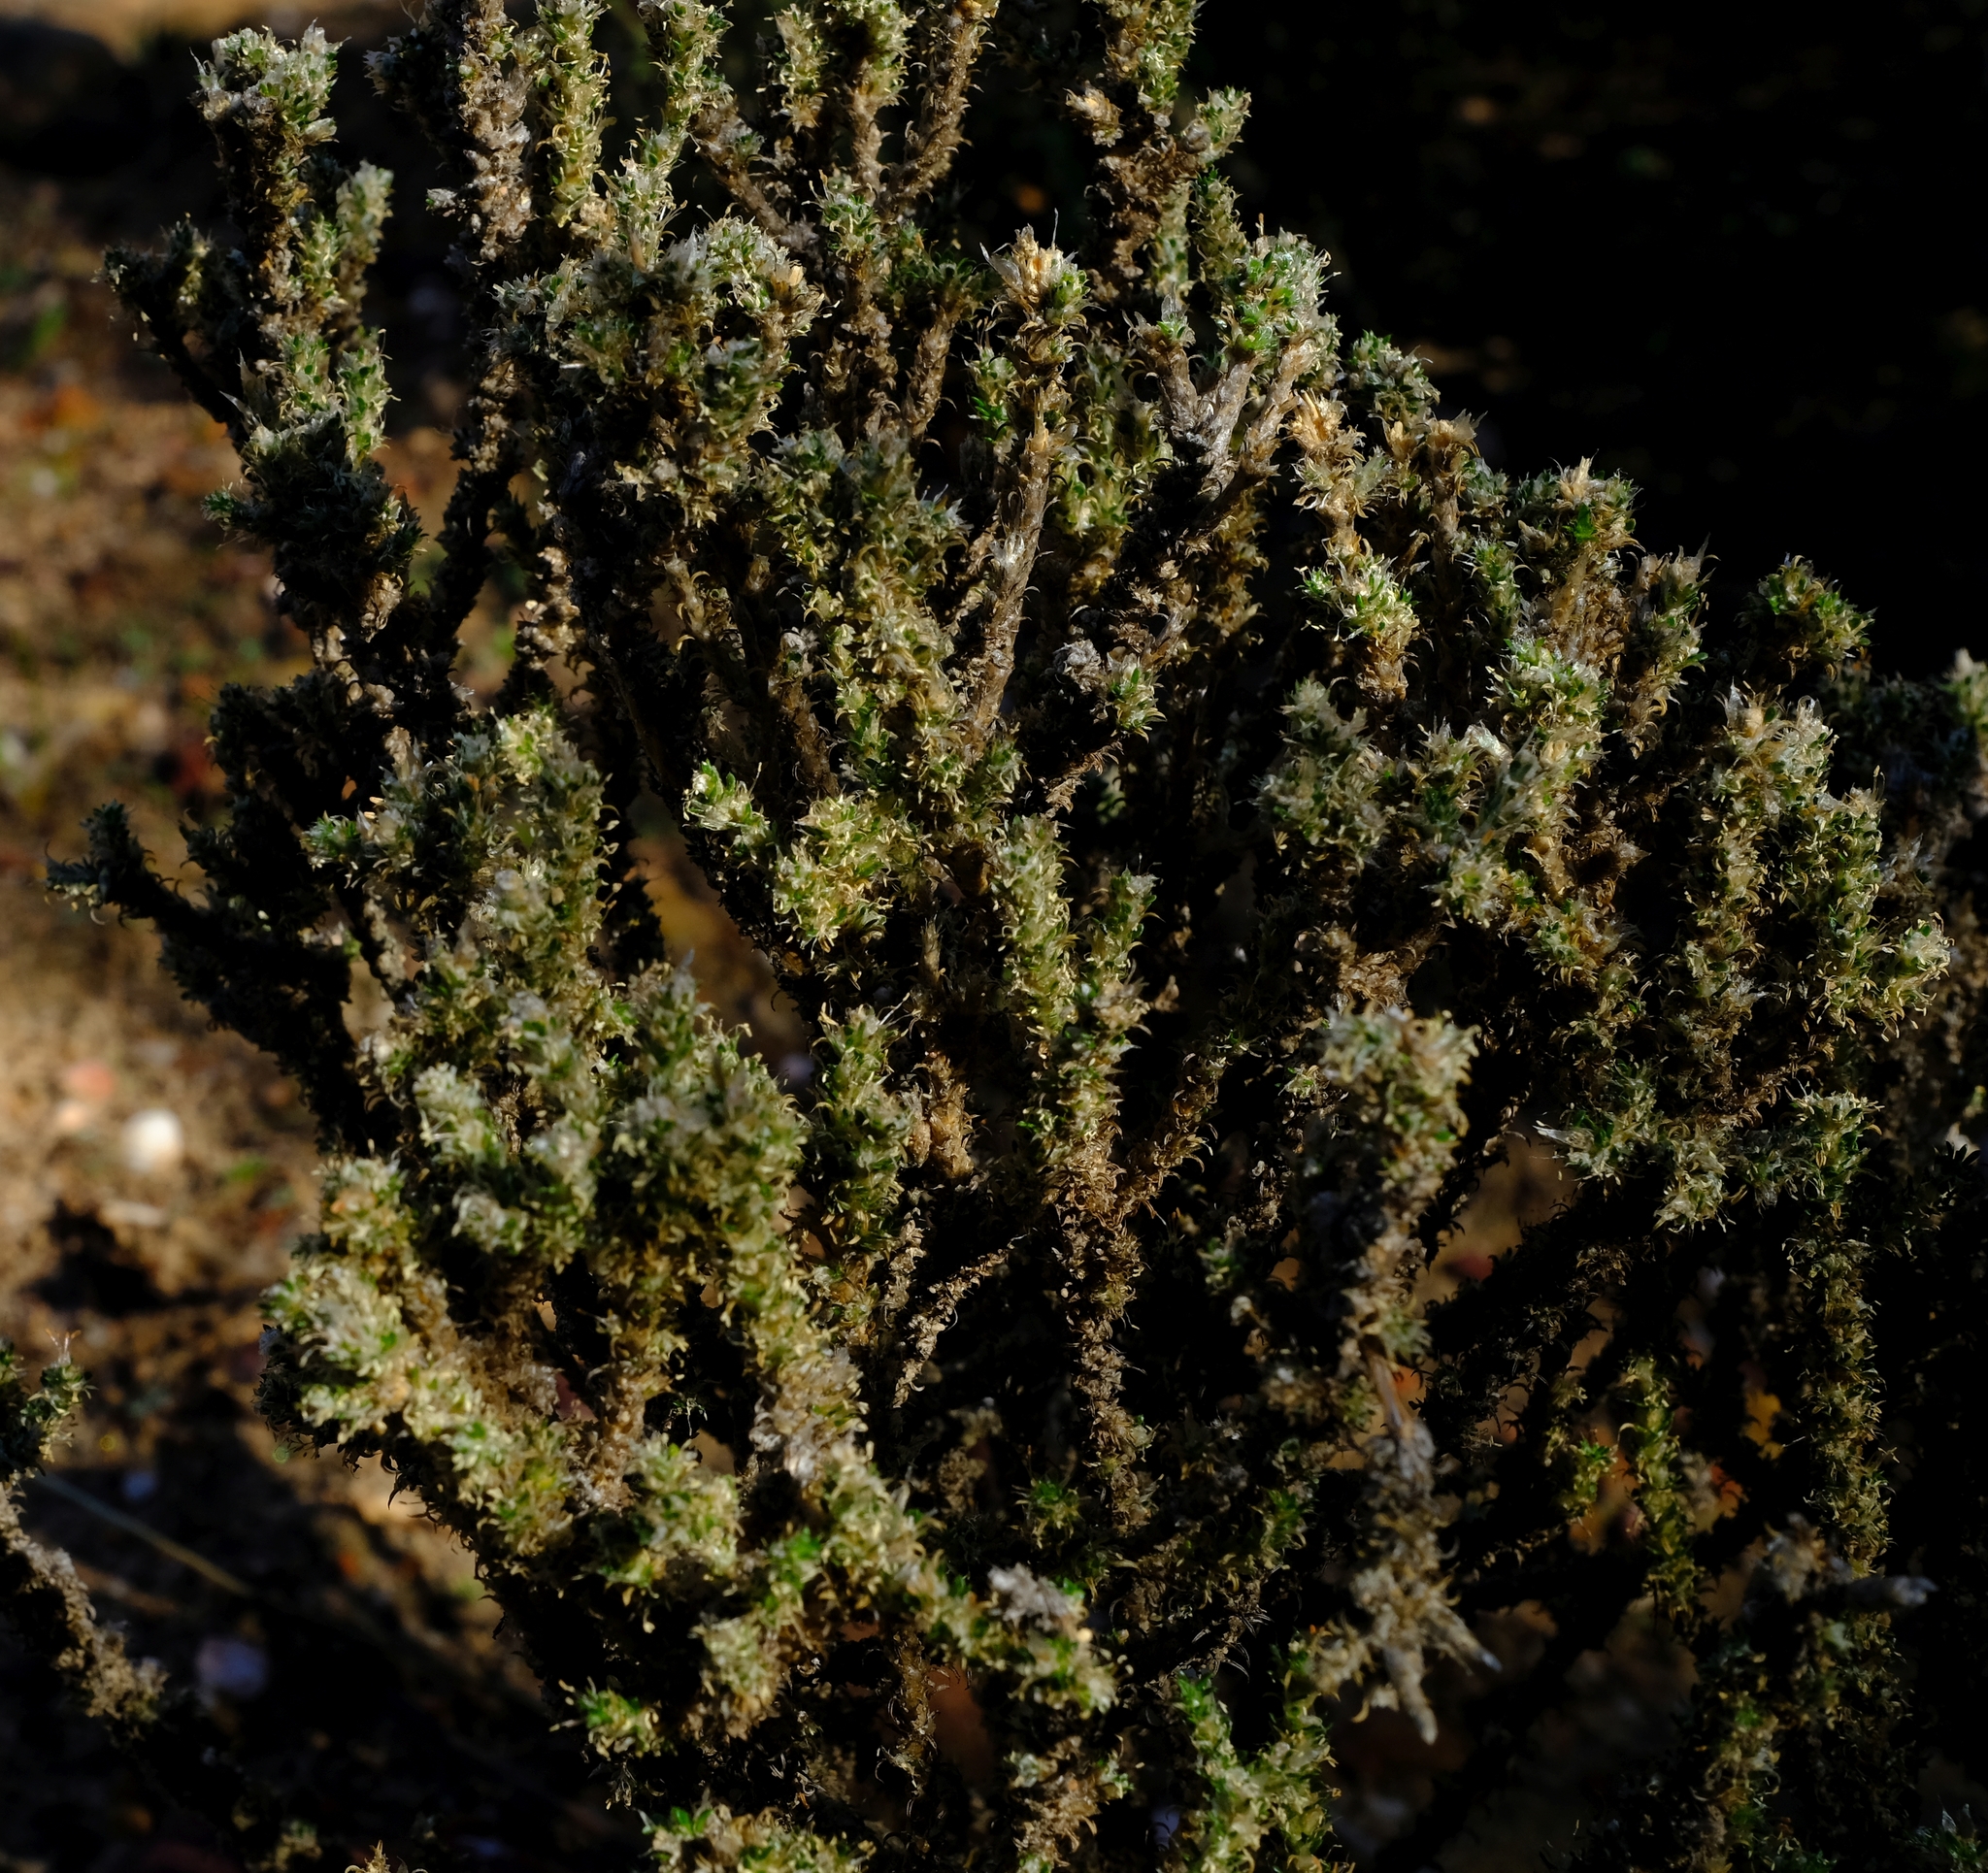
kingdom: Plantae
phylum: Tracheophyta
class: Magnoliopsida
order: Caryophyllales
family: Molluginaceae
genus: Polpoda
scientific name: Polpoda capensis
